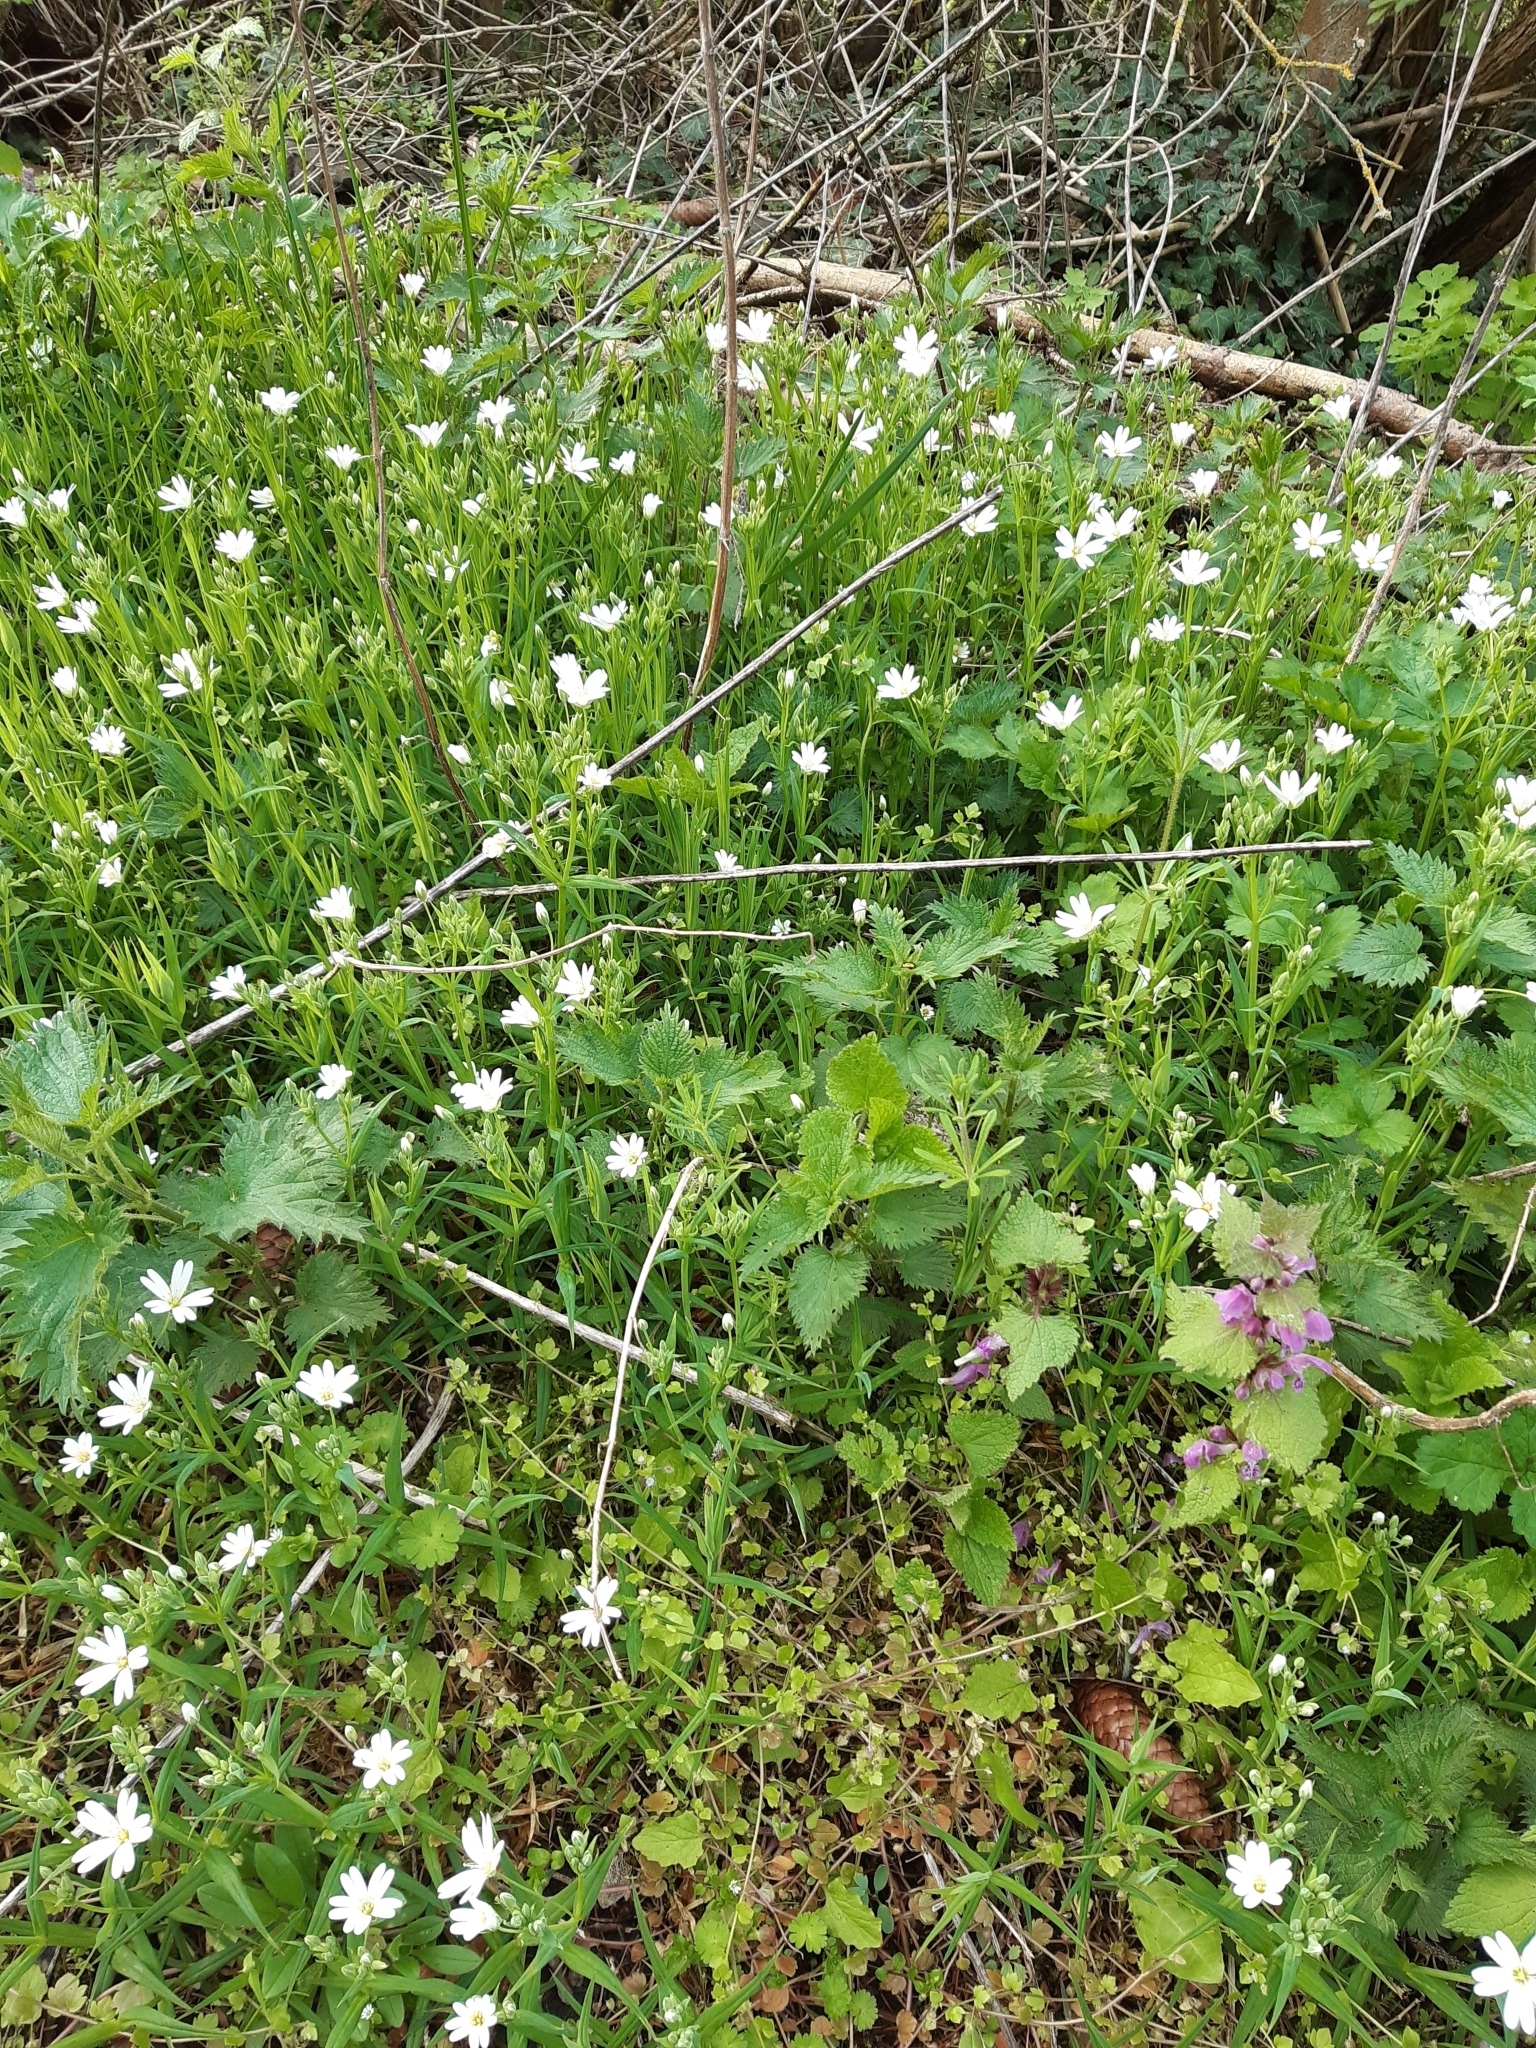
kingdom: Plantae
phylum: Tracheophyta
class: Magnoliopsida
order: Caryophyllales
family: Caryophyllaceae
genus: Rabelera
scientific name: Rabelera holostea
